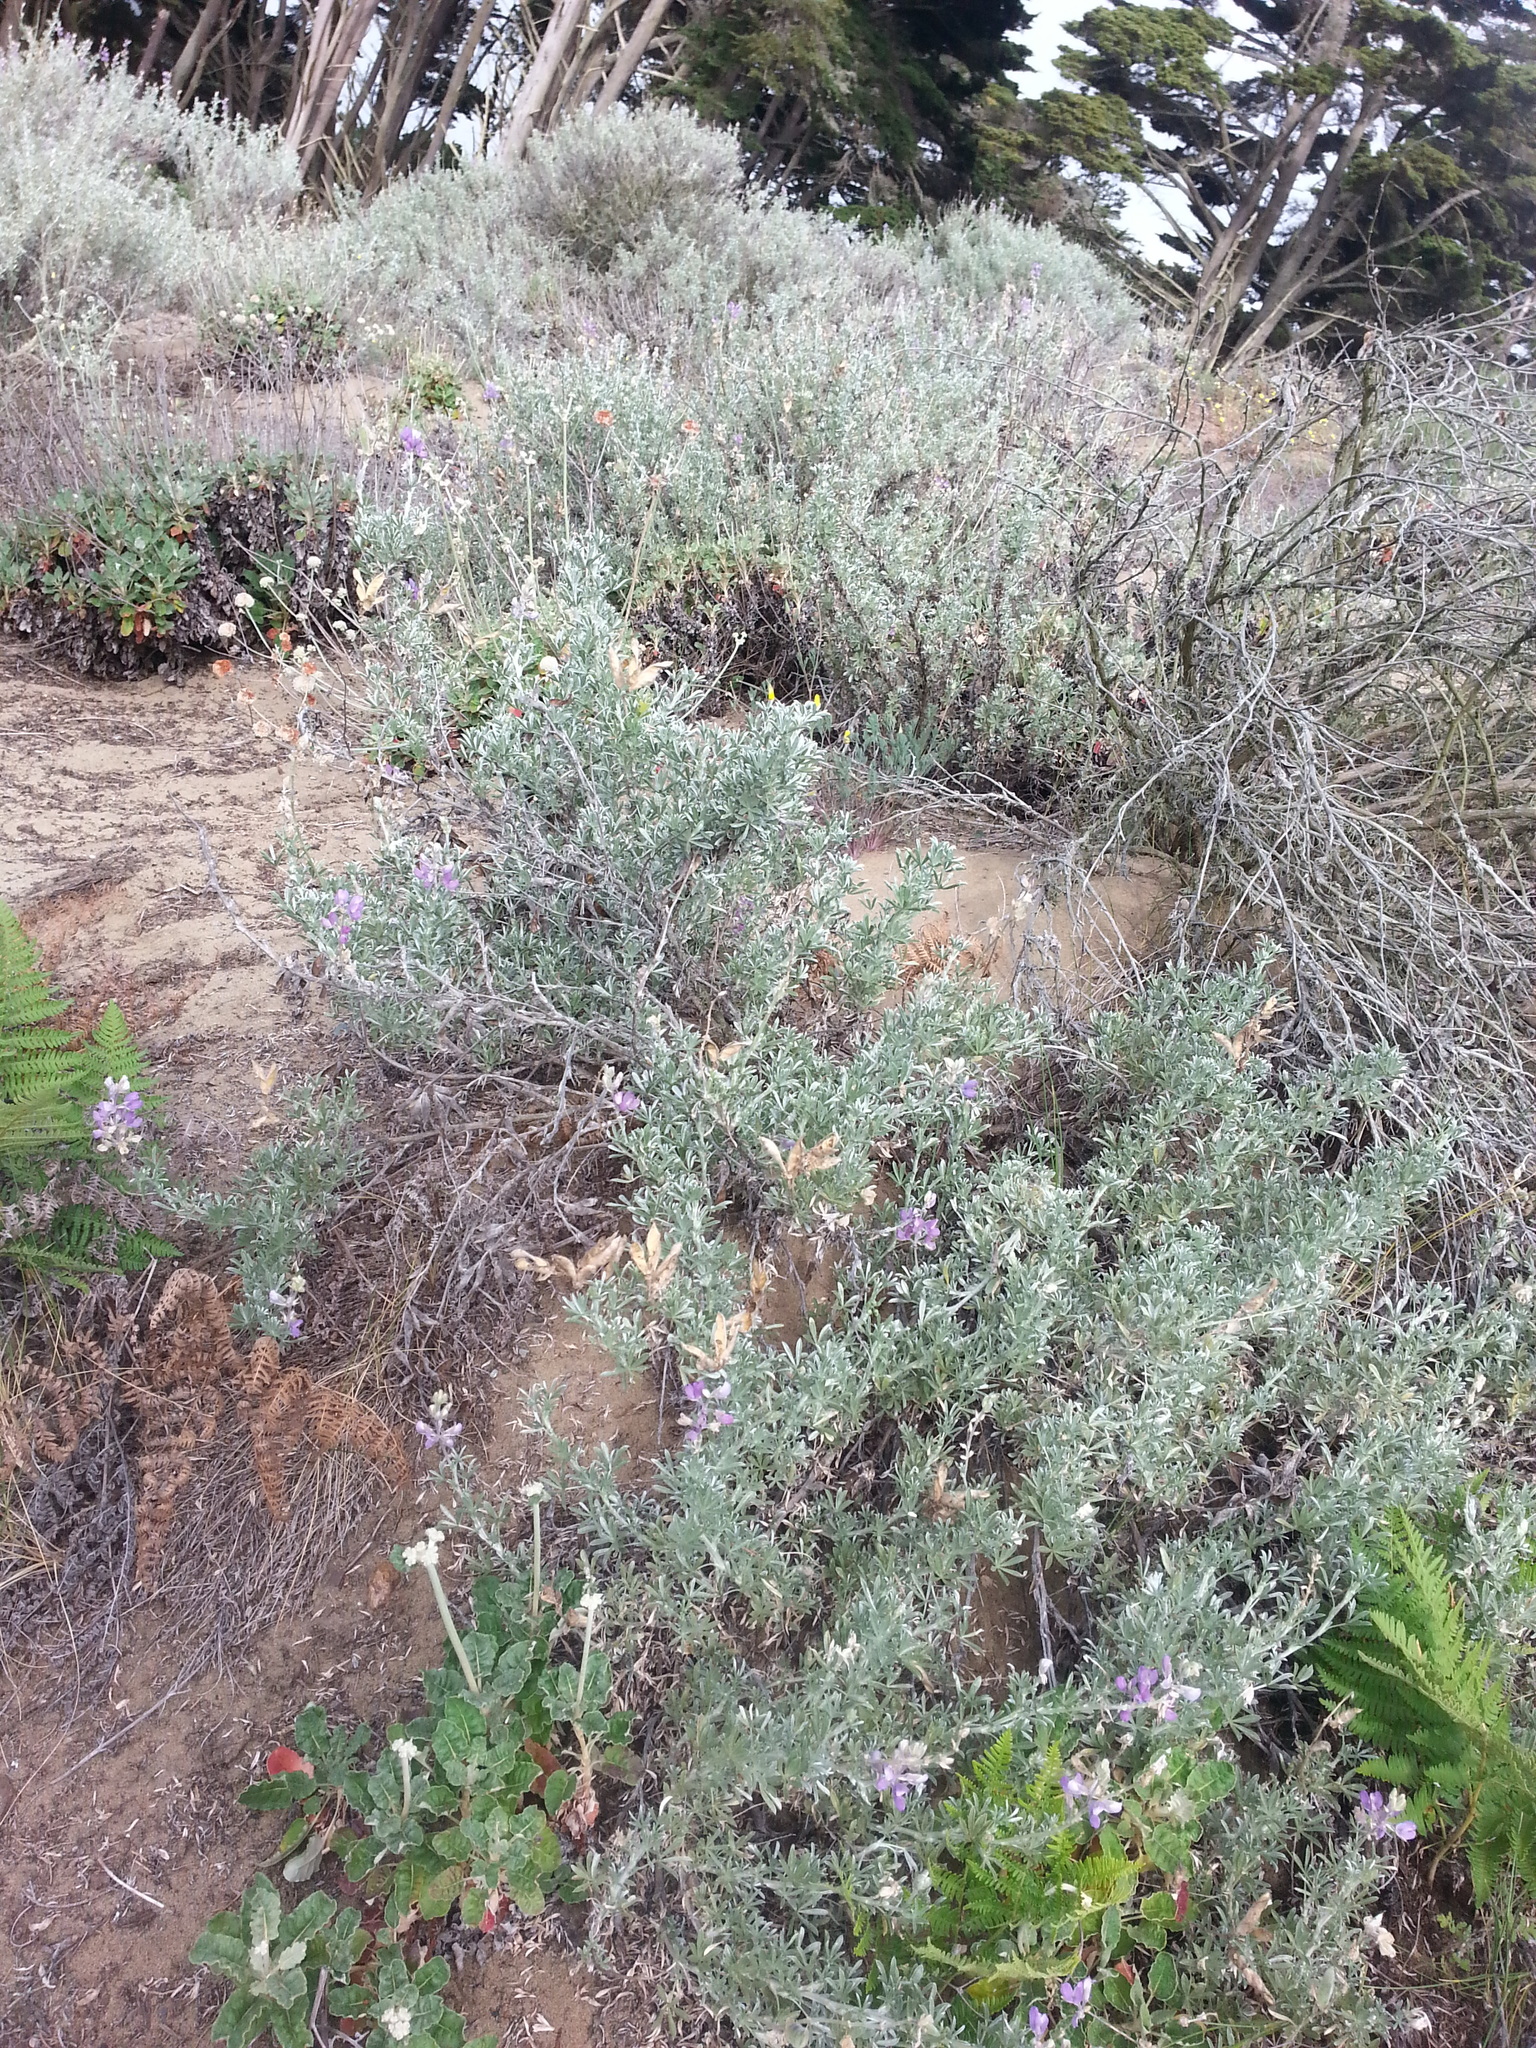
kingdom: Plantae
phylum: Tracheophyta
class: Magnoliopsida
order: Fabales
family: Fabaceae
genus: Lupinus
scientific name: Lupinus chamissonis
